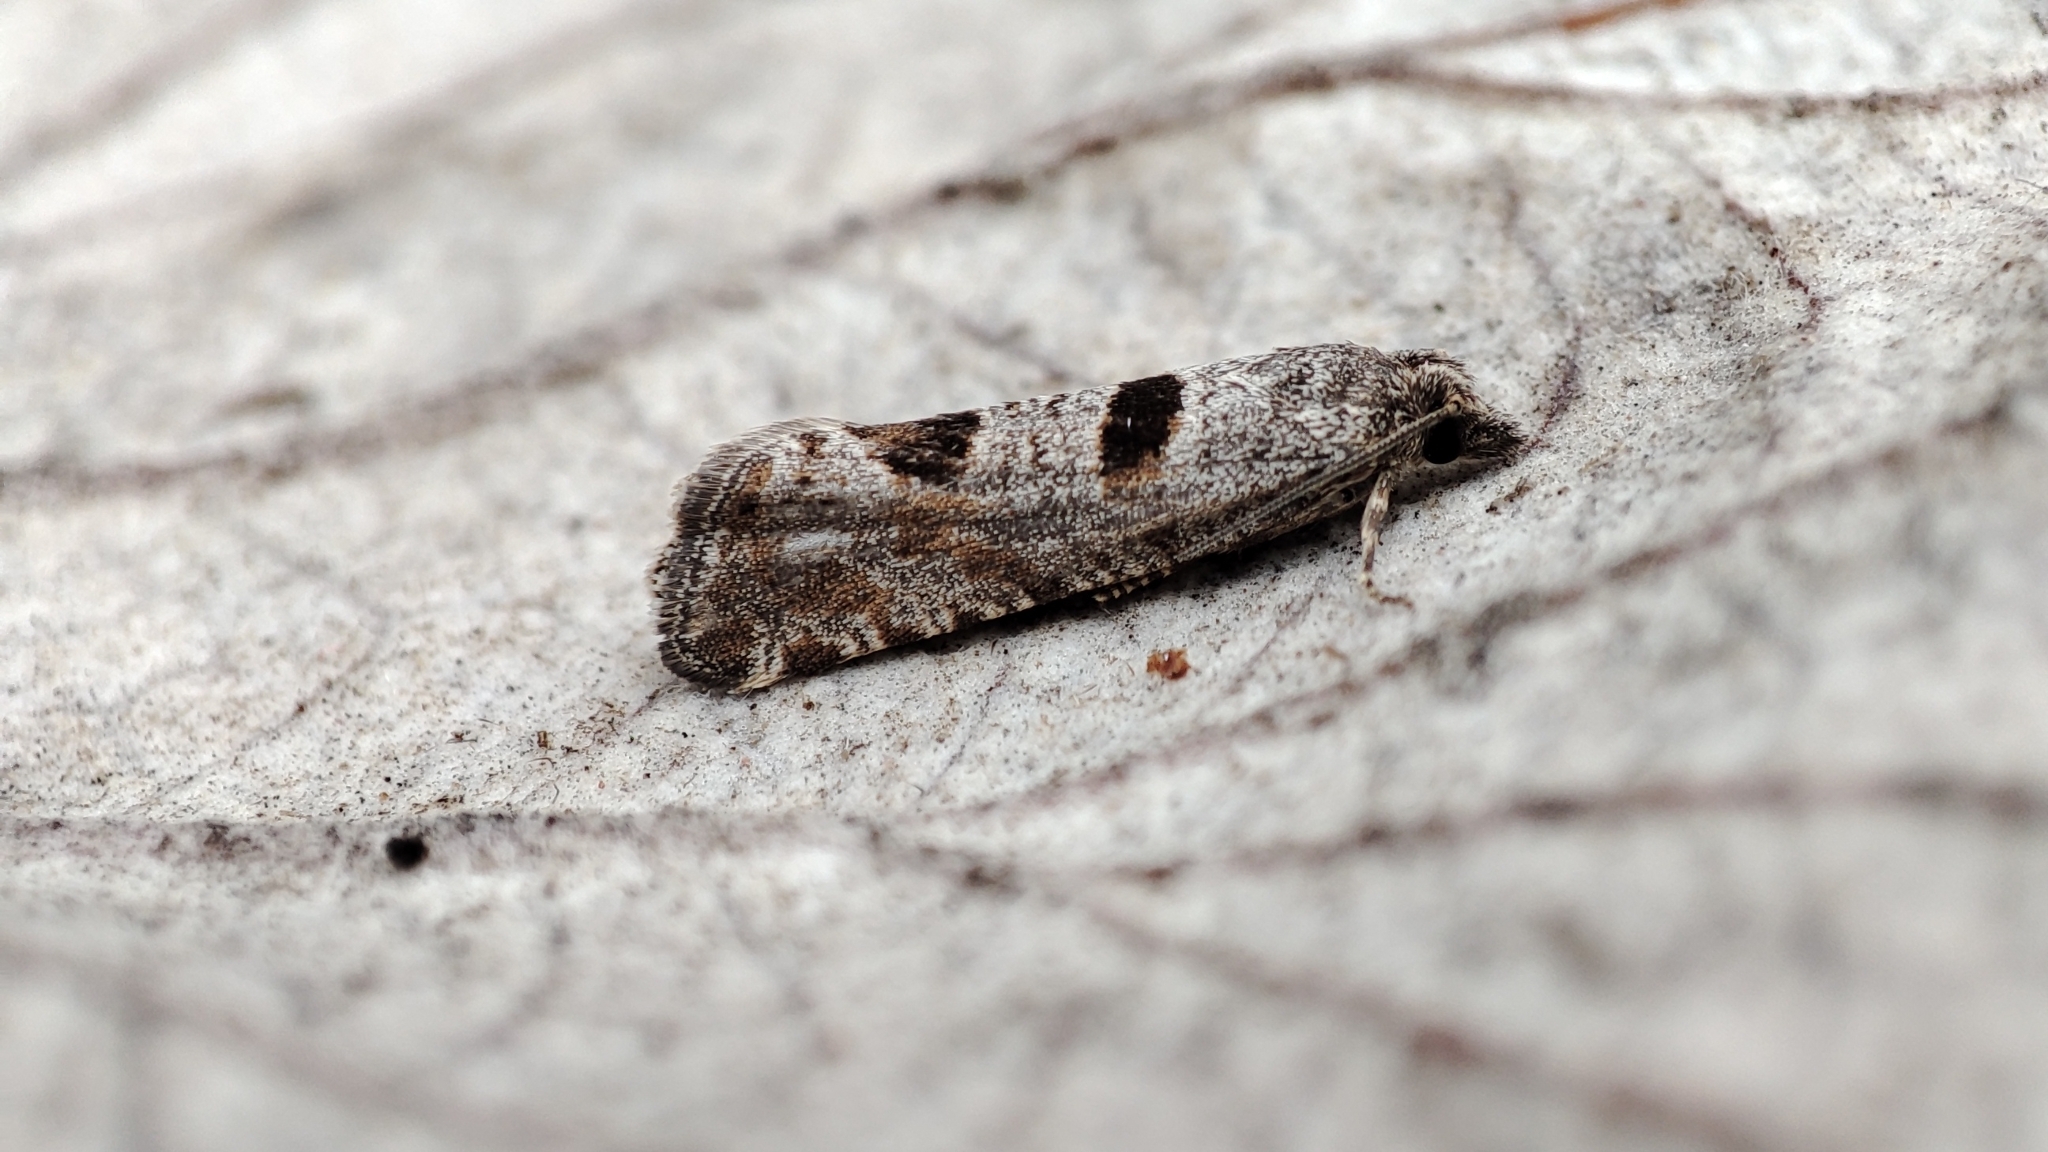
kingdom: Animalia
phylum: Arthropoda
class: Insecta
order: Lepidoptera
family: Tortricidae
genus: Eriopsela
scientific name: Eriopsela quadrana
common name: Four-spot bell
